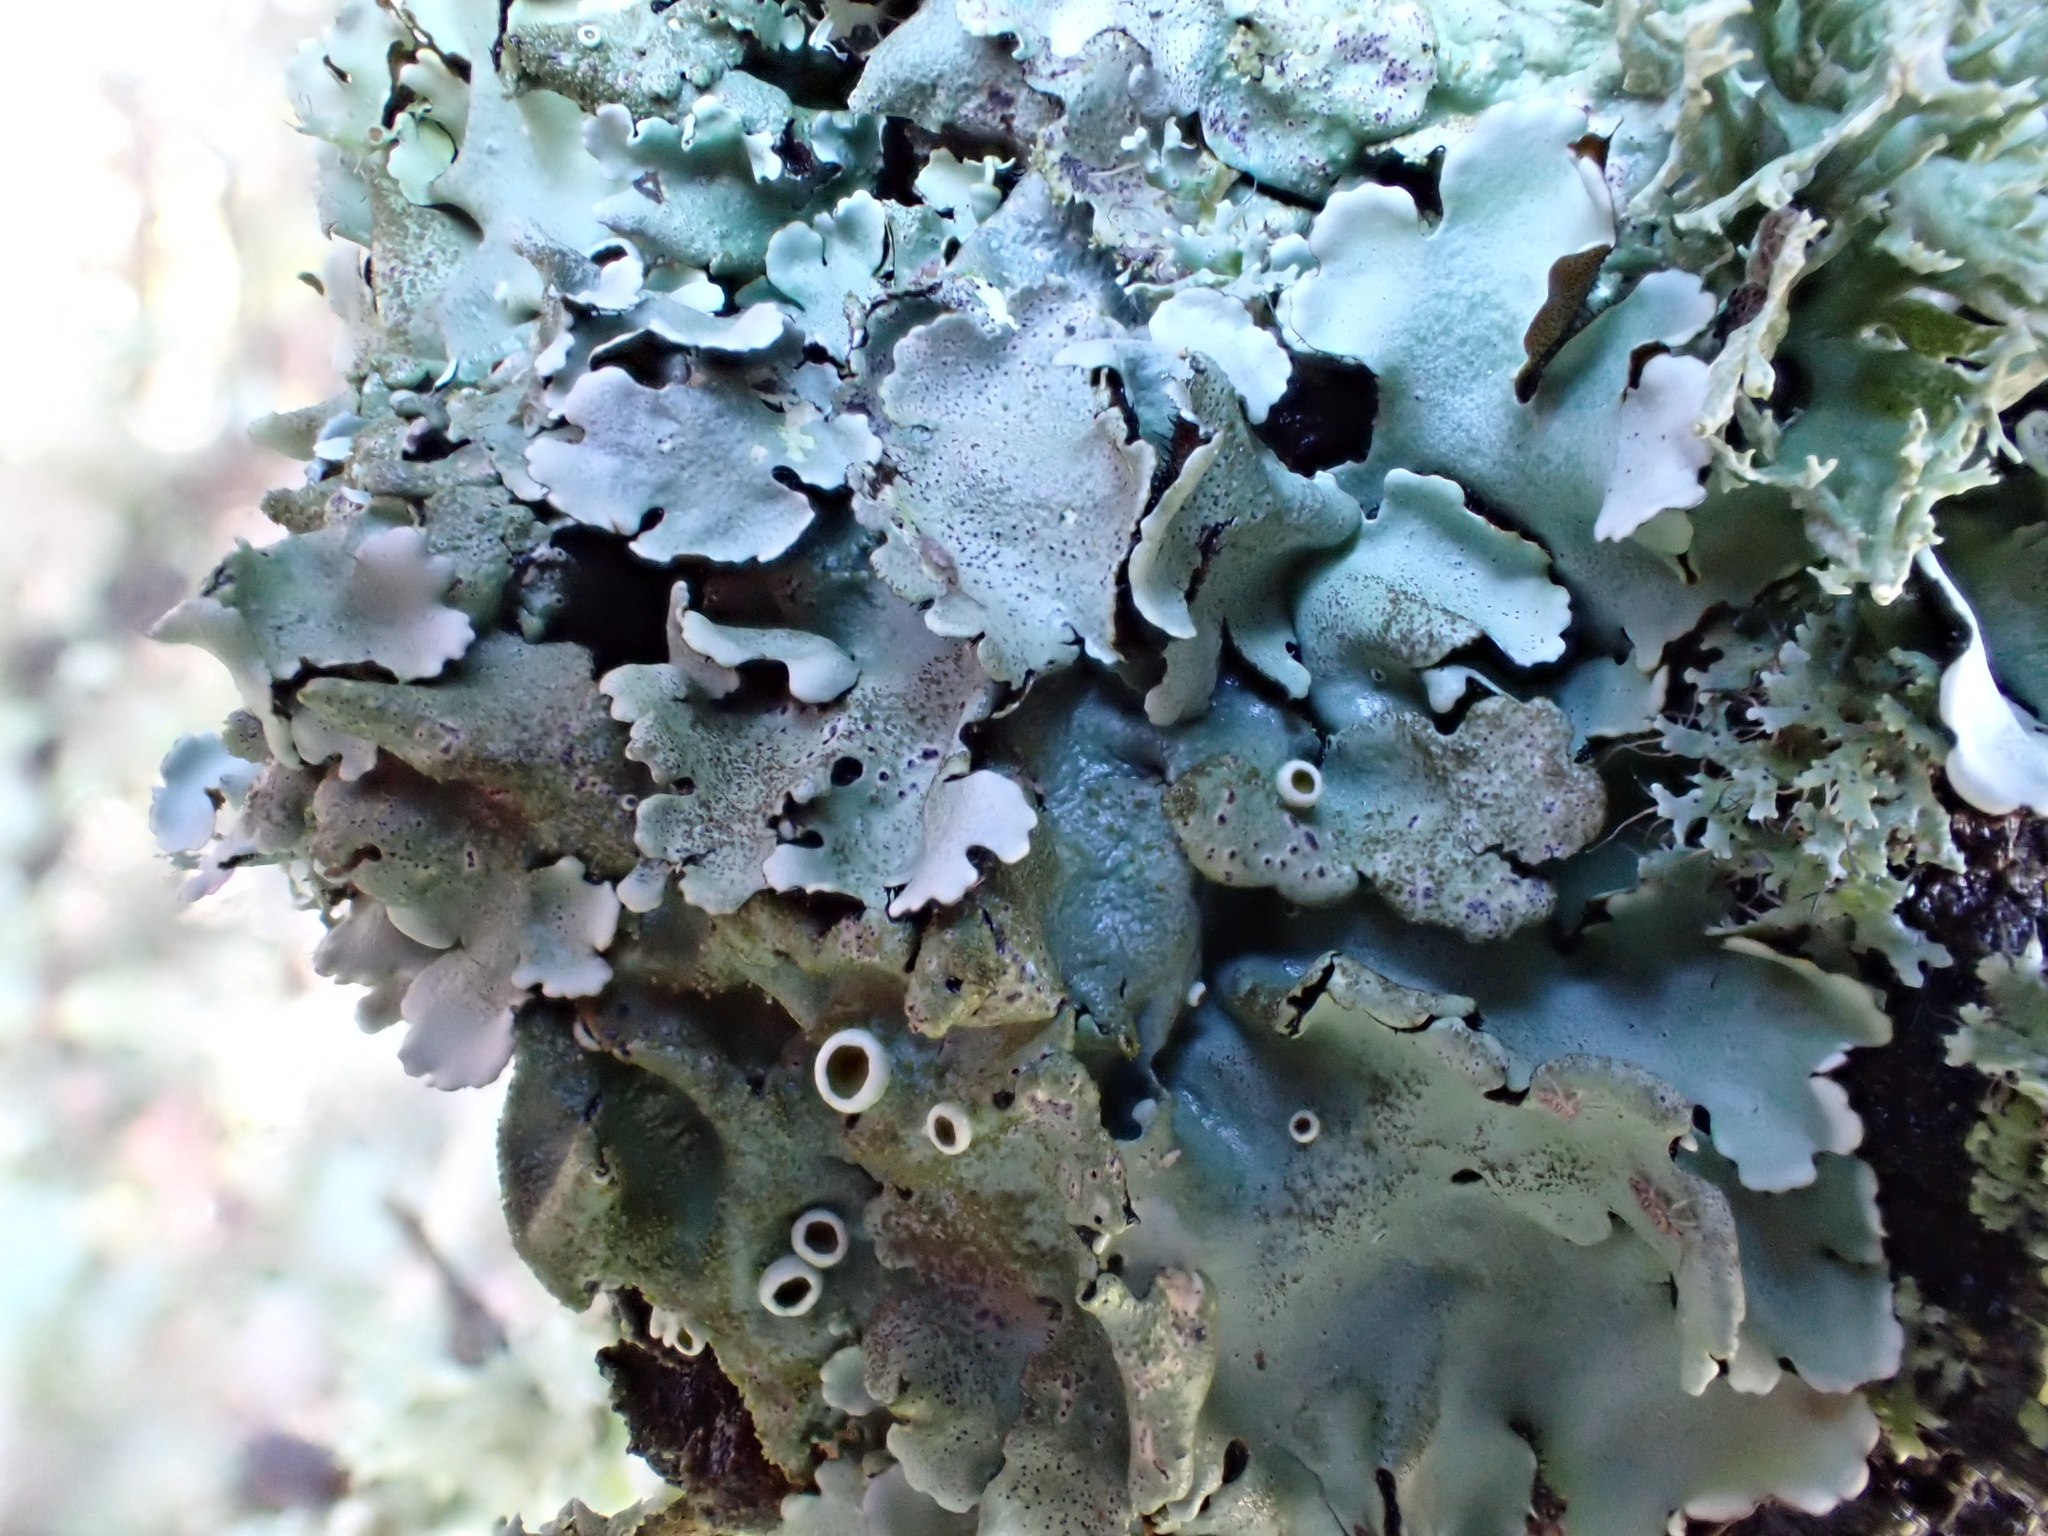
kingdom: Fungi
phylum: Ascomycota
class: Lecanoromycetes
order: Lecanorales
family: Parmeliaceae
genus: Parmelina
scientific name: Parmelina tiliacea
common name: Linden shield lichen
